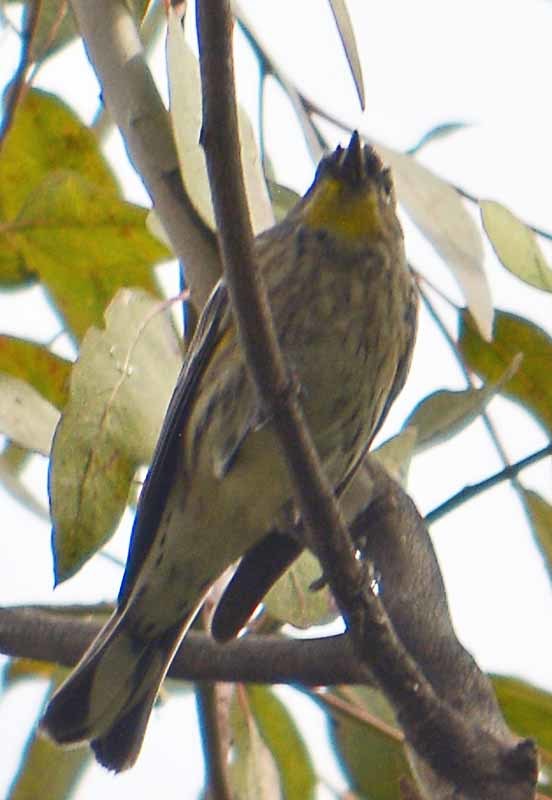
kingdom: Animalia
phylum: Chordata
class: Aves
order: Passeriformes
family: Parulidae
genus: Setophaga
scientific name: Setophaga coronata
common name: Myrtle warbler
